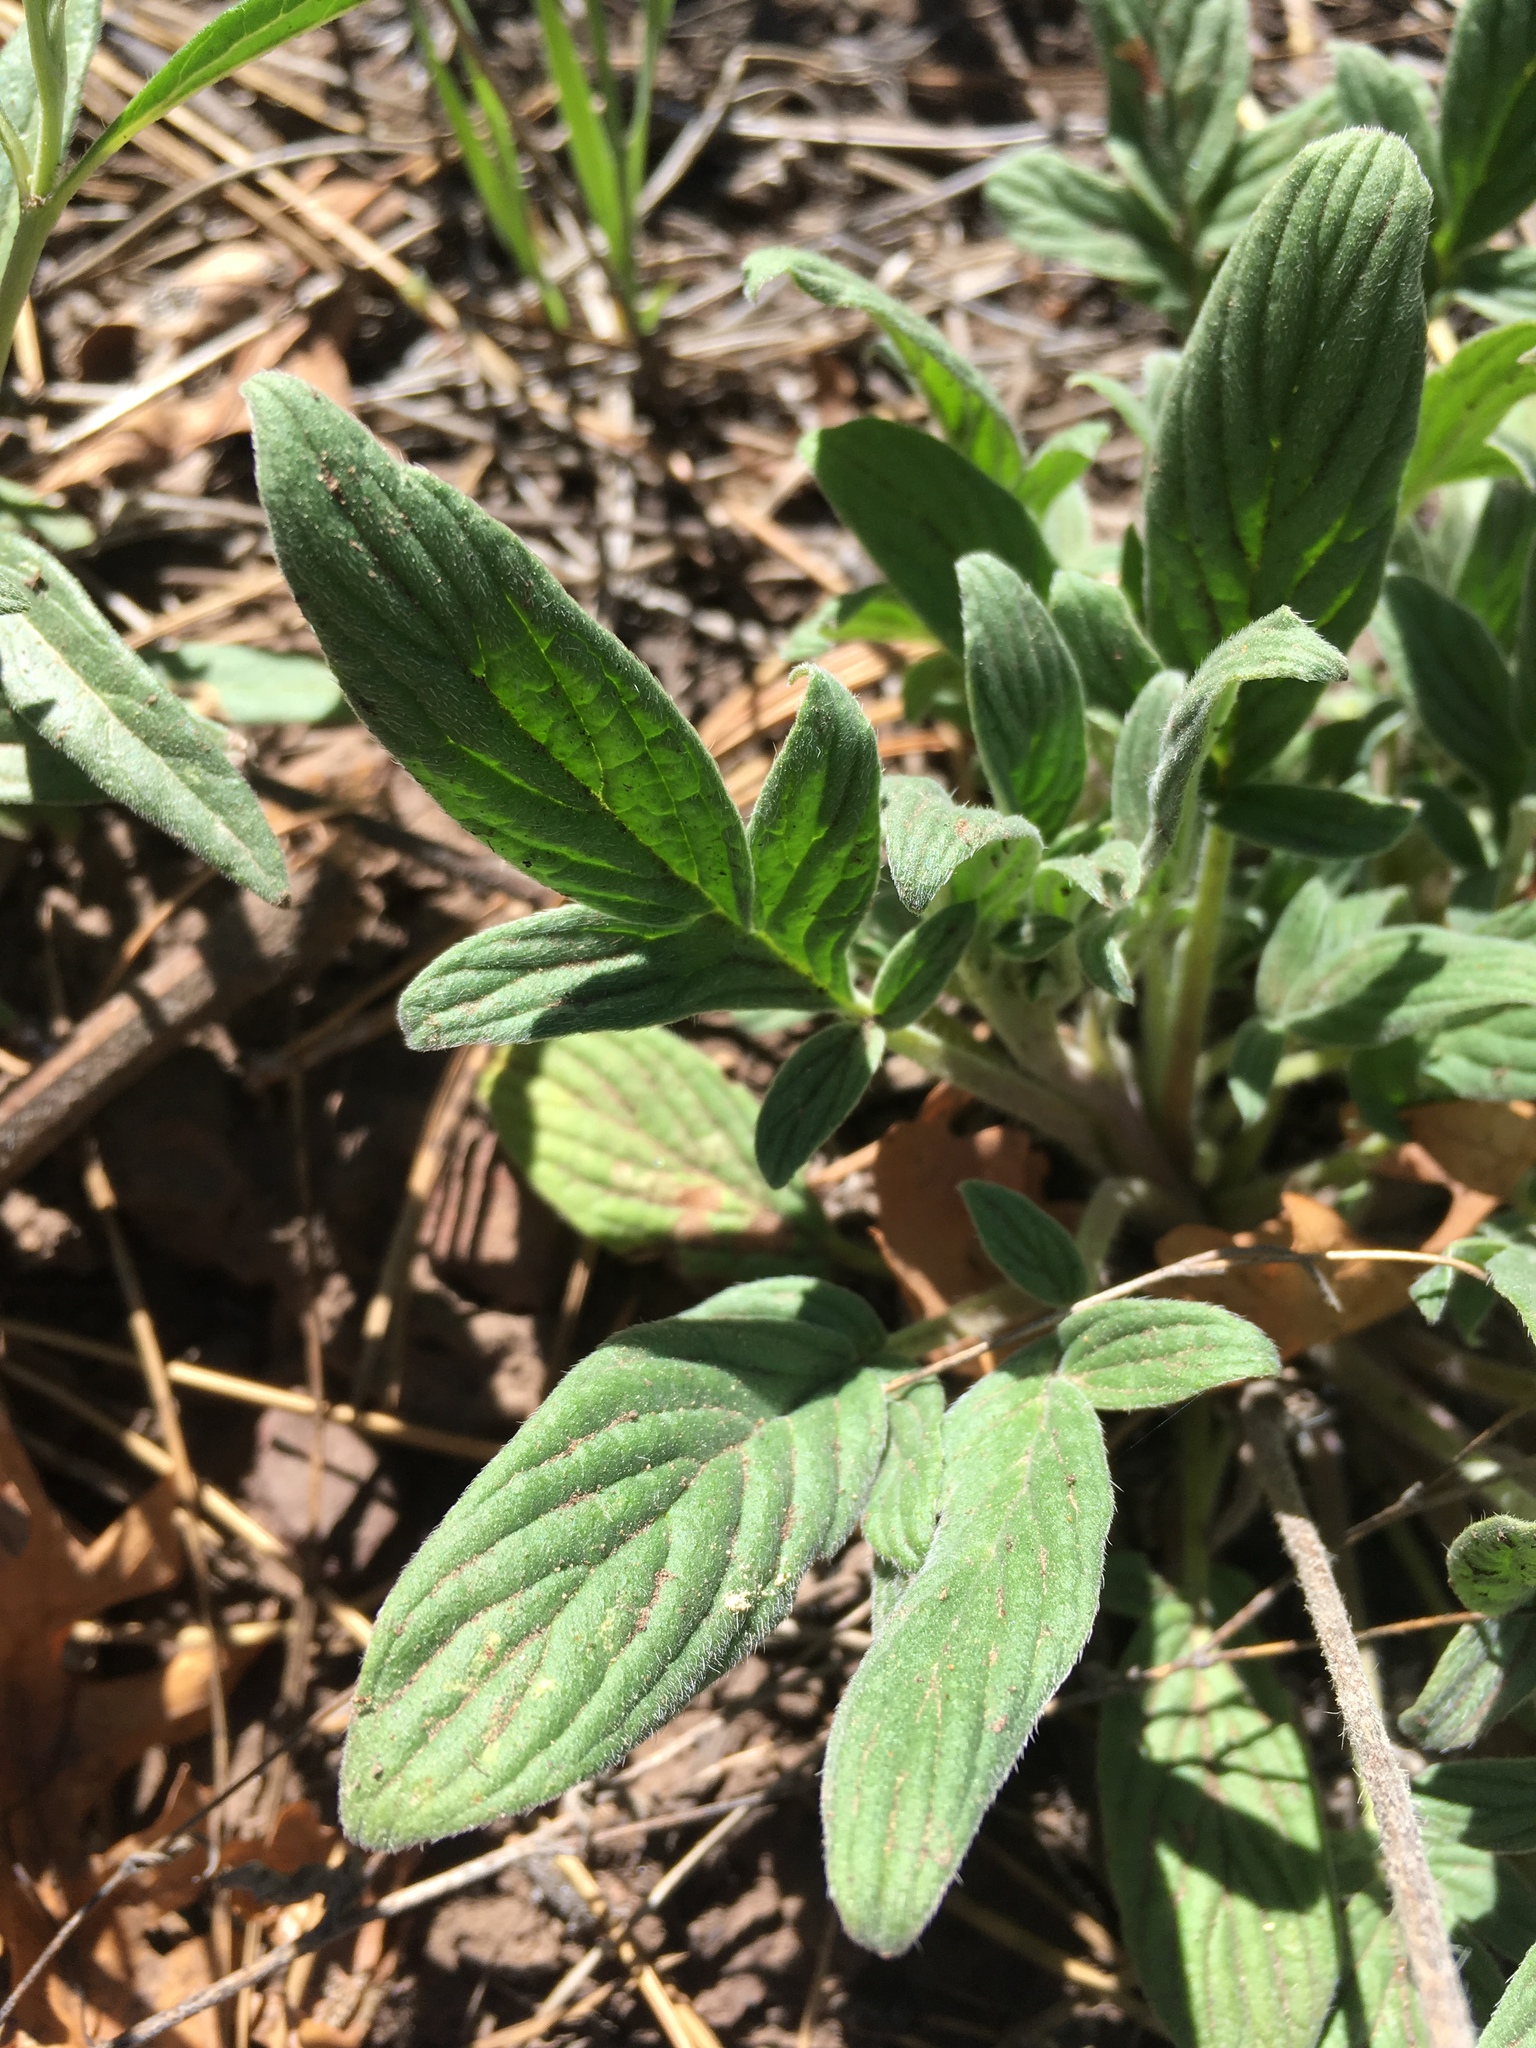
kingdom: Plantae
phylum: Tracheophyta
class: Magnoliopsida
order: Boraginales
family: Hydrophyllaceae
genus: Phacelia
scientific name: Phacelia heterophylla
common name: Variable-leaved phacelia
